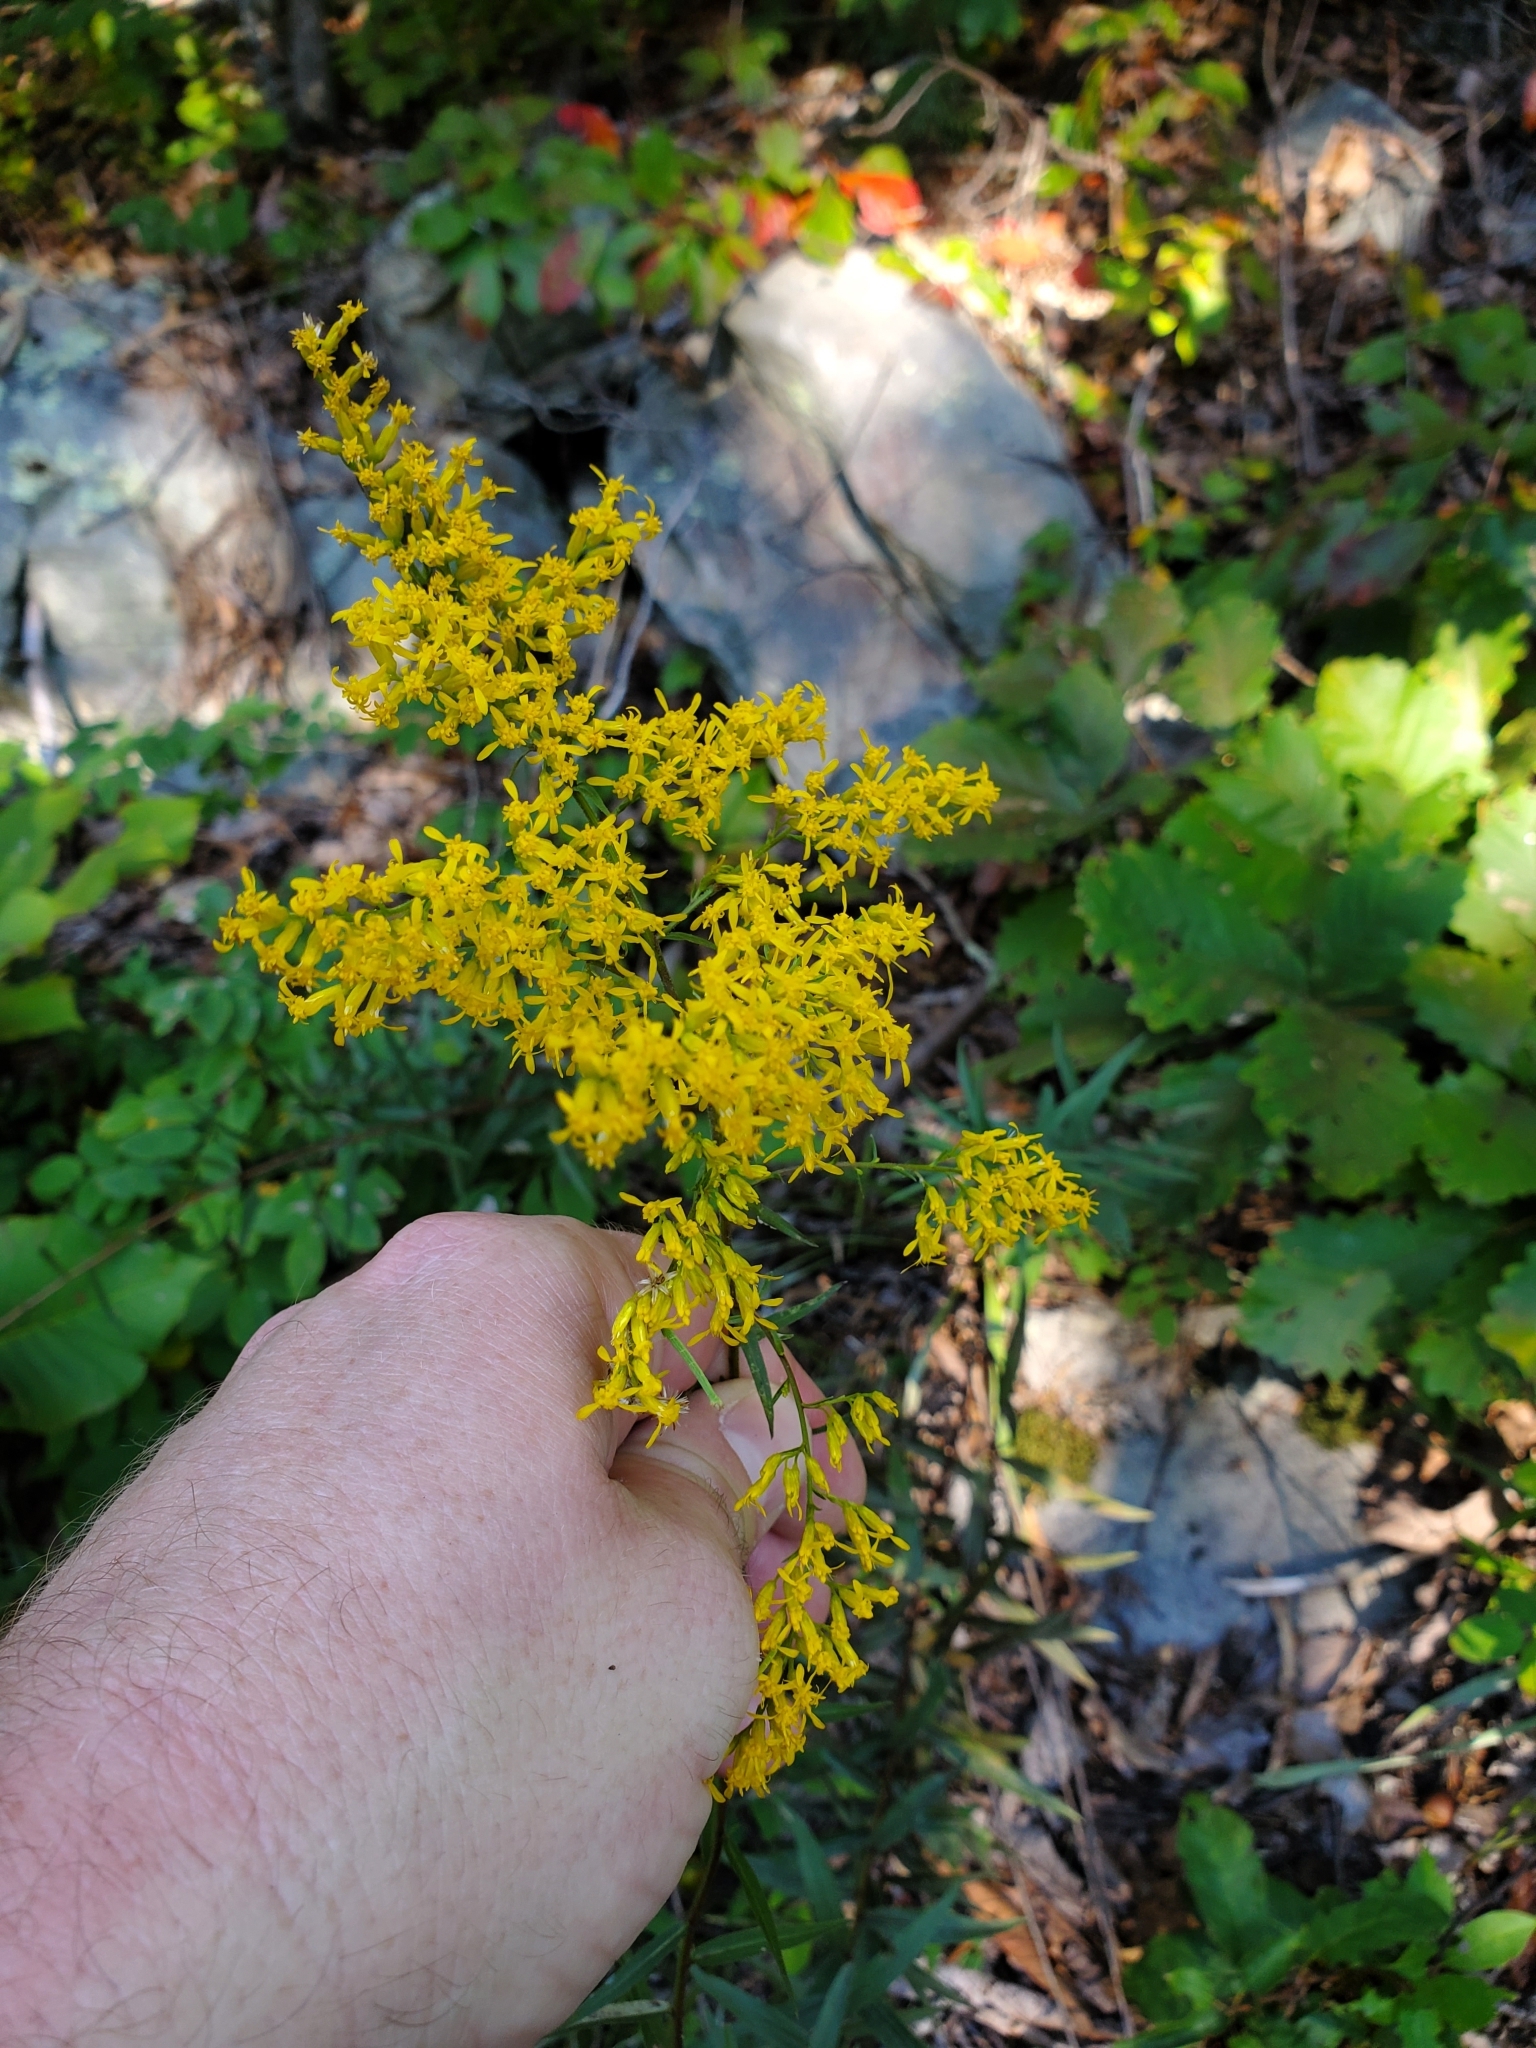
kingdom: Plantae
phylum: Tracheophyta
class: Magnoliopsida
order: Asterales
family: Asteraceae
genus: Solidago
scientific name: Solidago odora
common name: Anise-scented goldenrod
